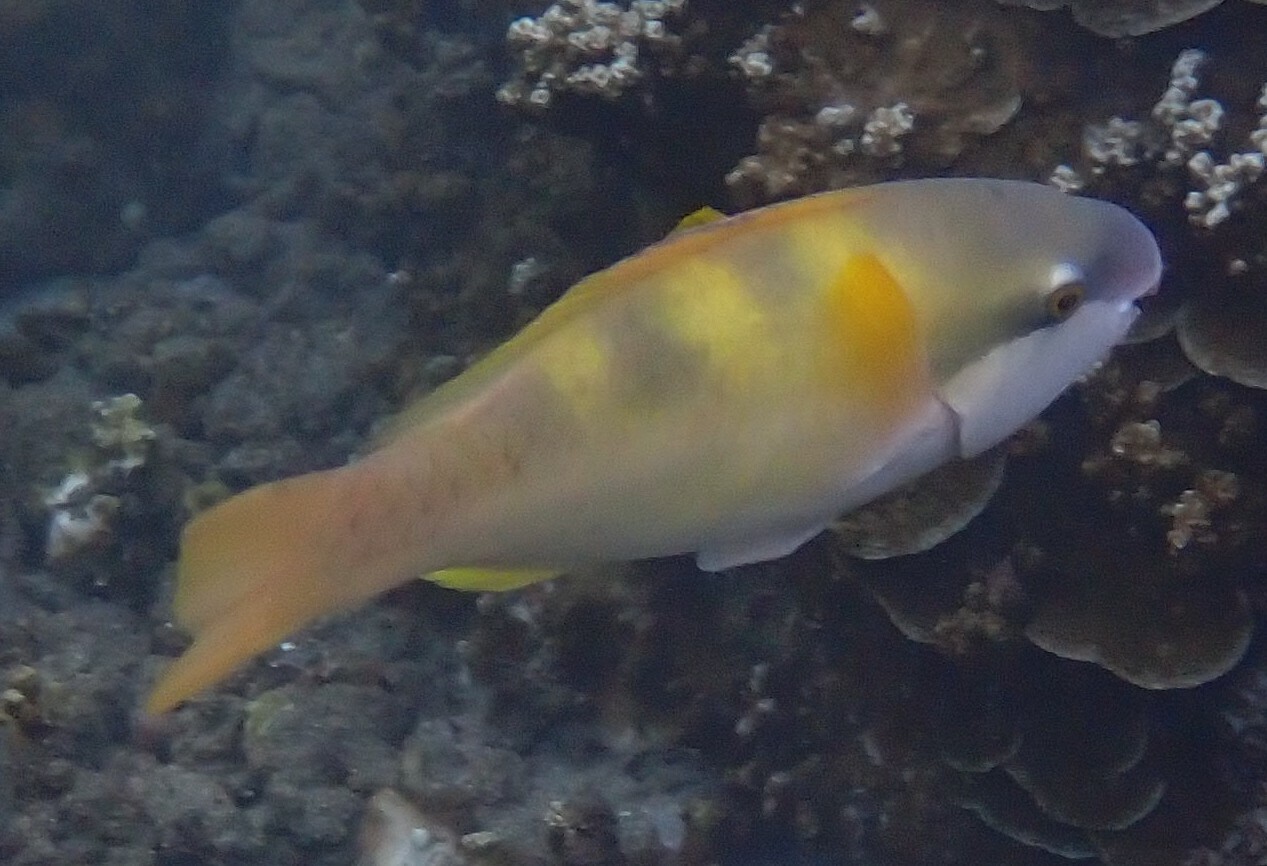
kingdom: Animalia
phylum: Chordata
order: Perciformes
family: Scaridae
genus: Scarus
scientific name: Scarus dimidiatus
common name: Yellowbarred parrotfish
